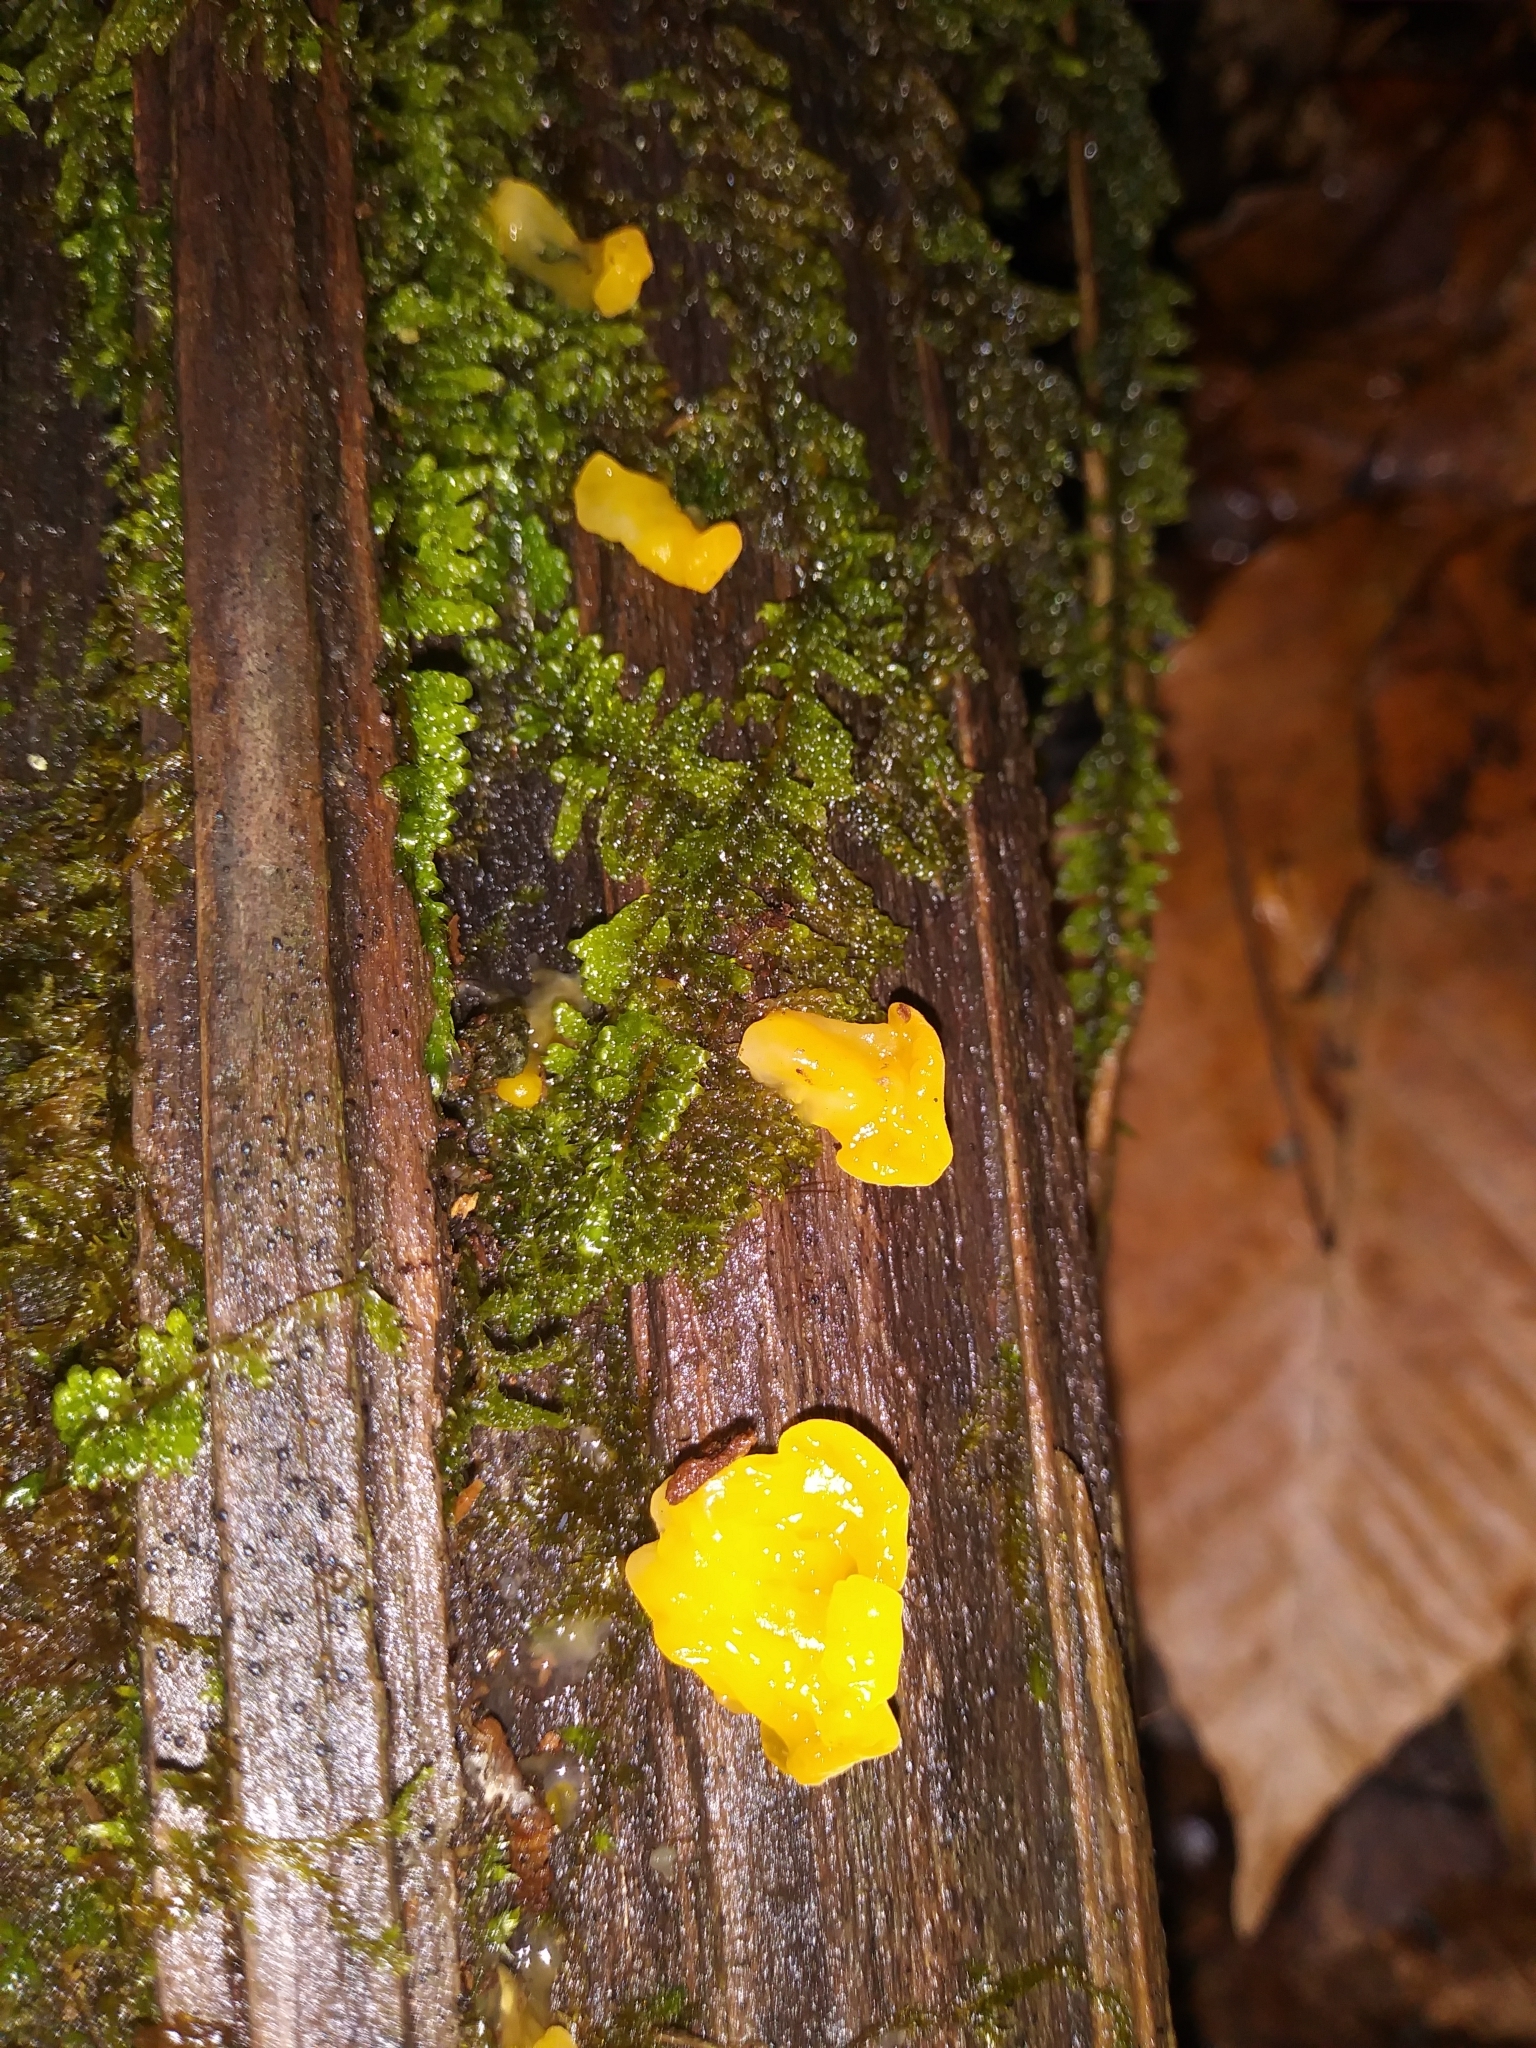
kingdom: Fungi
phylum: Basidiomycota
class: Tremellomycetes
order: Tremellales
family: Tremellaceae
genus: Tremella
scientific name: Tremella mesenterica
